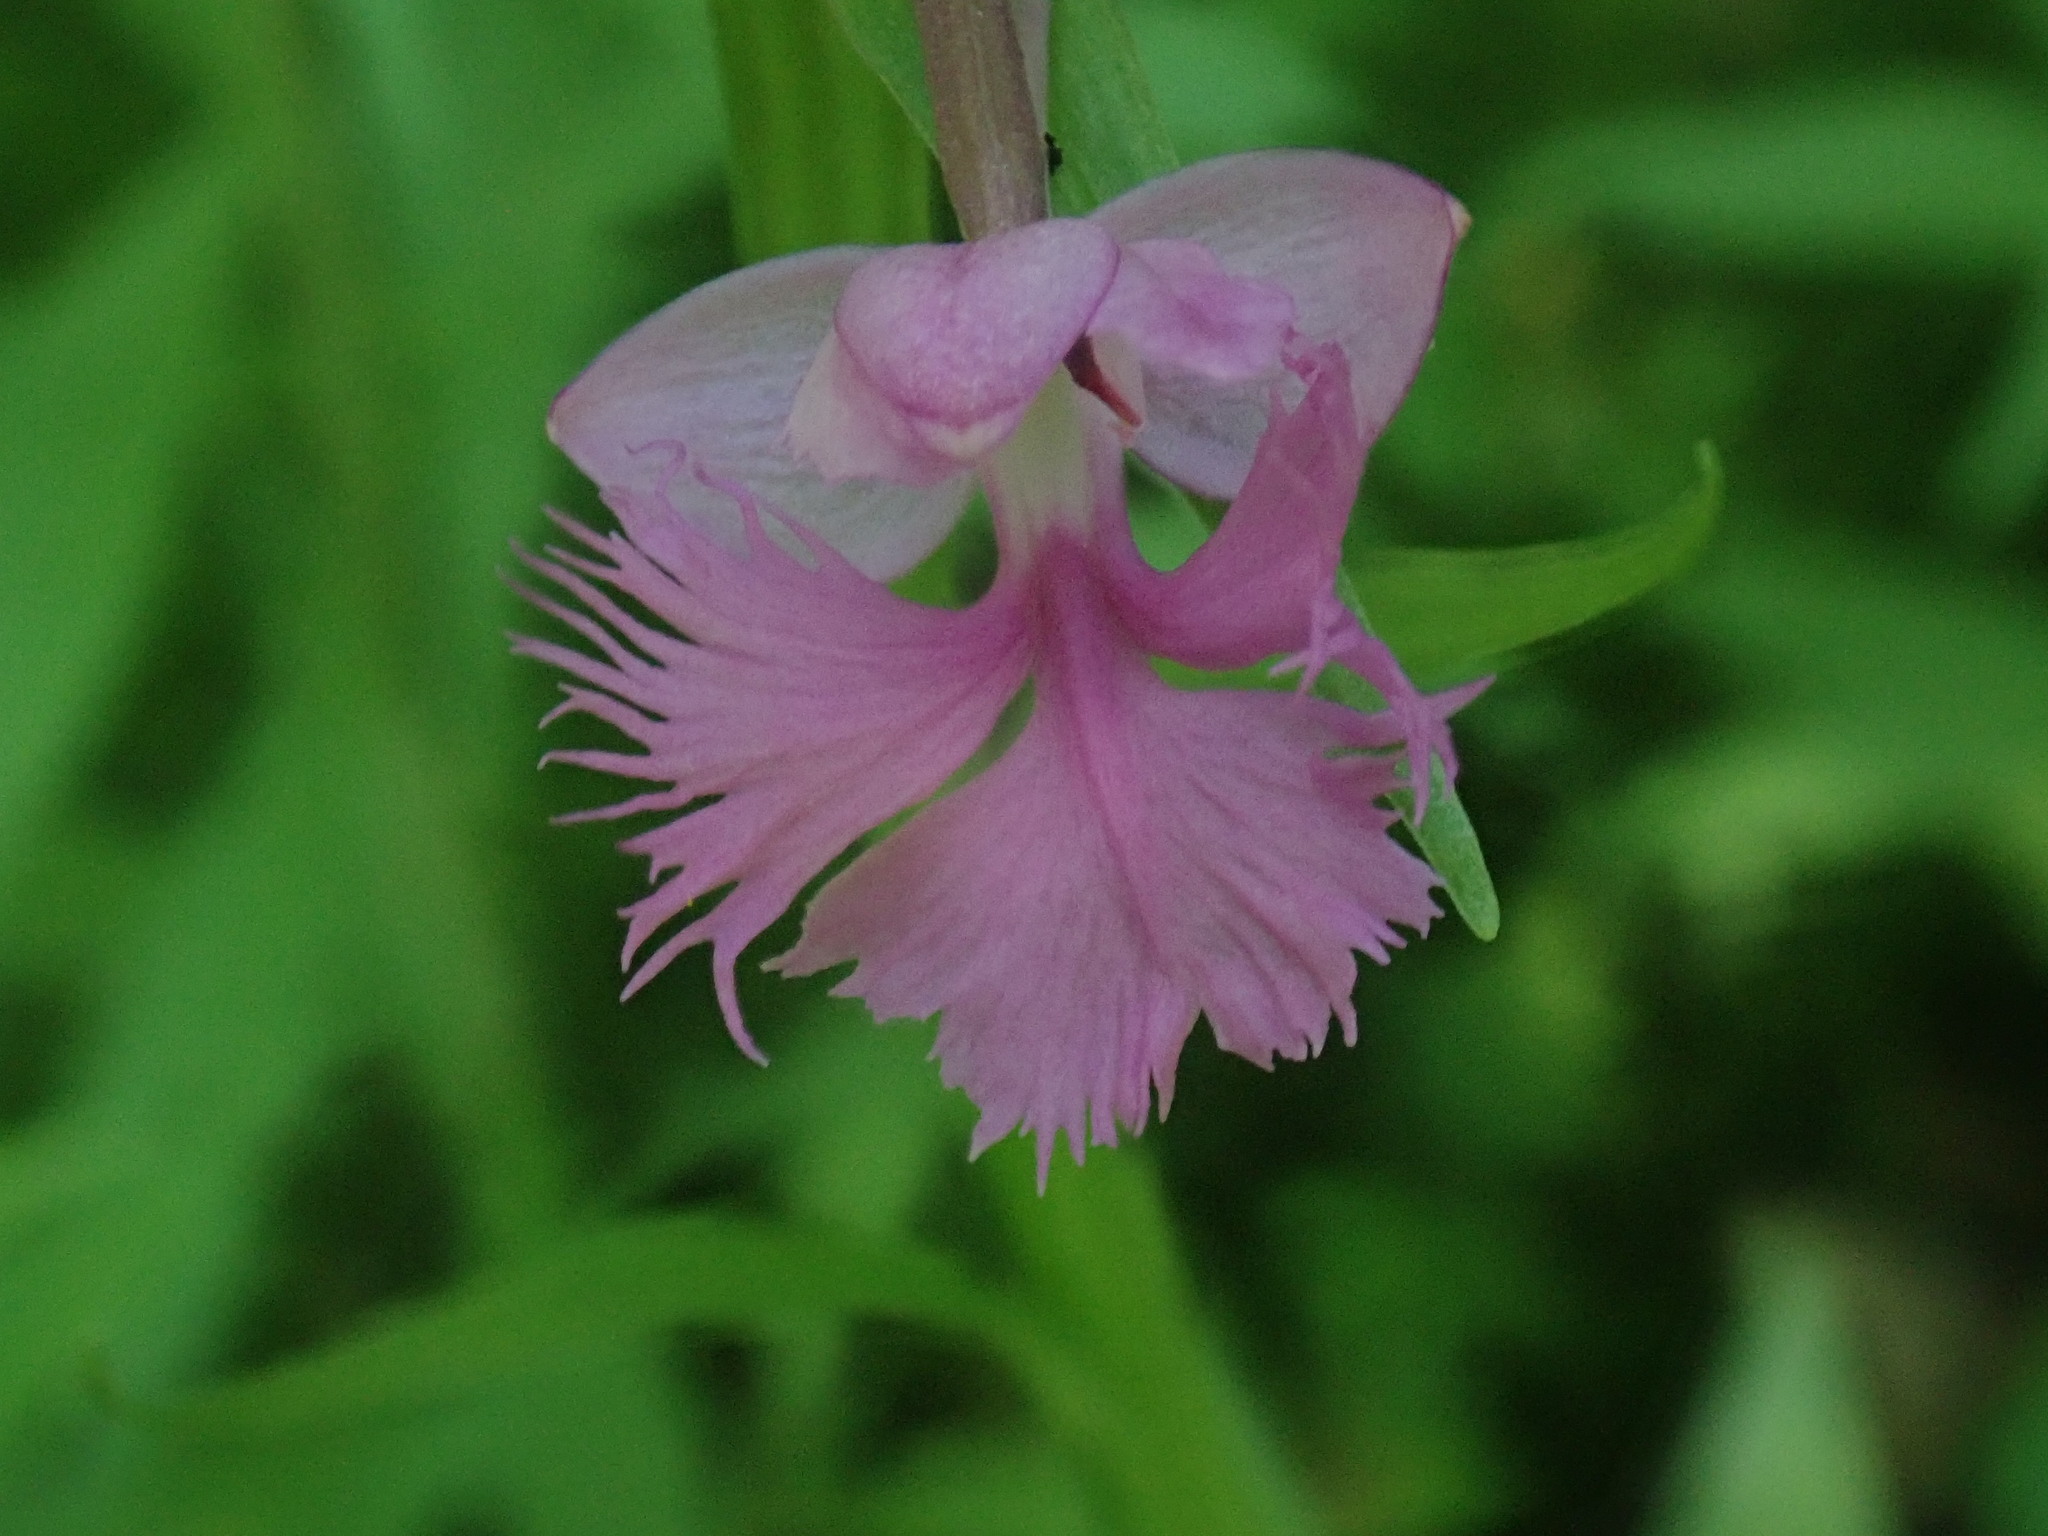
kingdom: Plantae
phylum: Tracheophyta
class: Liliopsida
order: Asparagales
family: Orchidaceae
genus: Platanthera
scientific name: Platanthera grandiflora
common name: Greater purple fringed orchid
